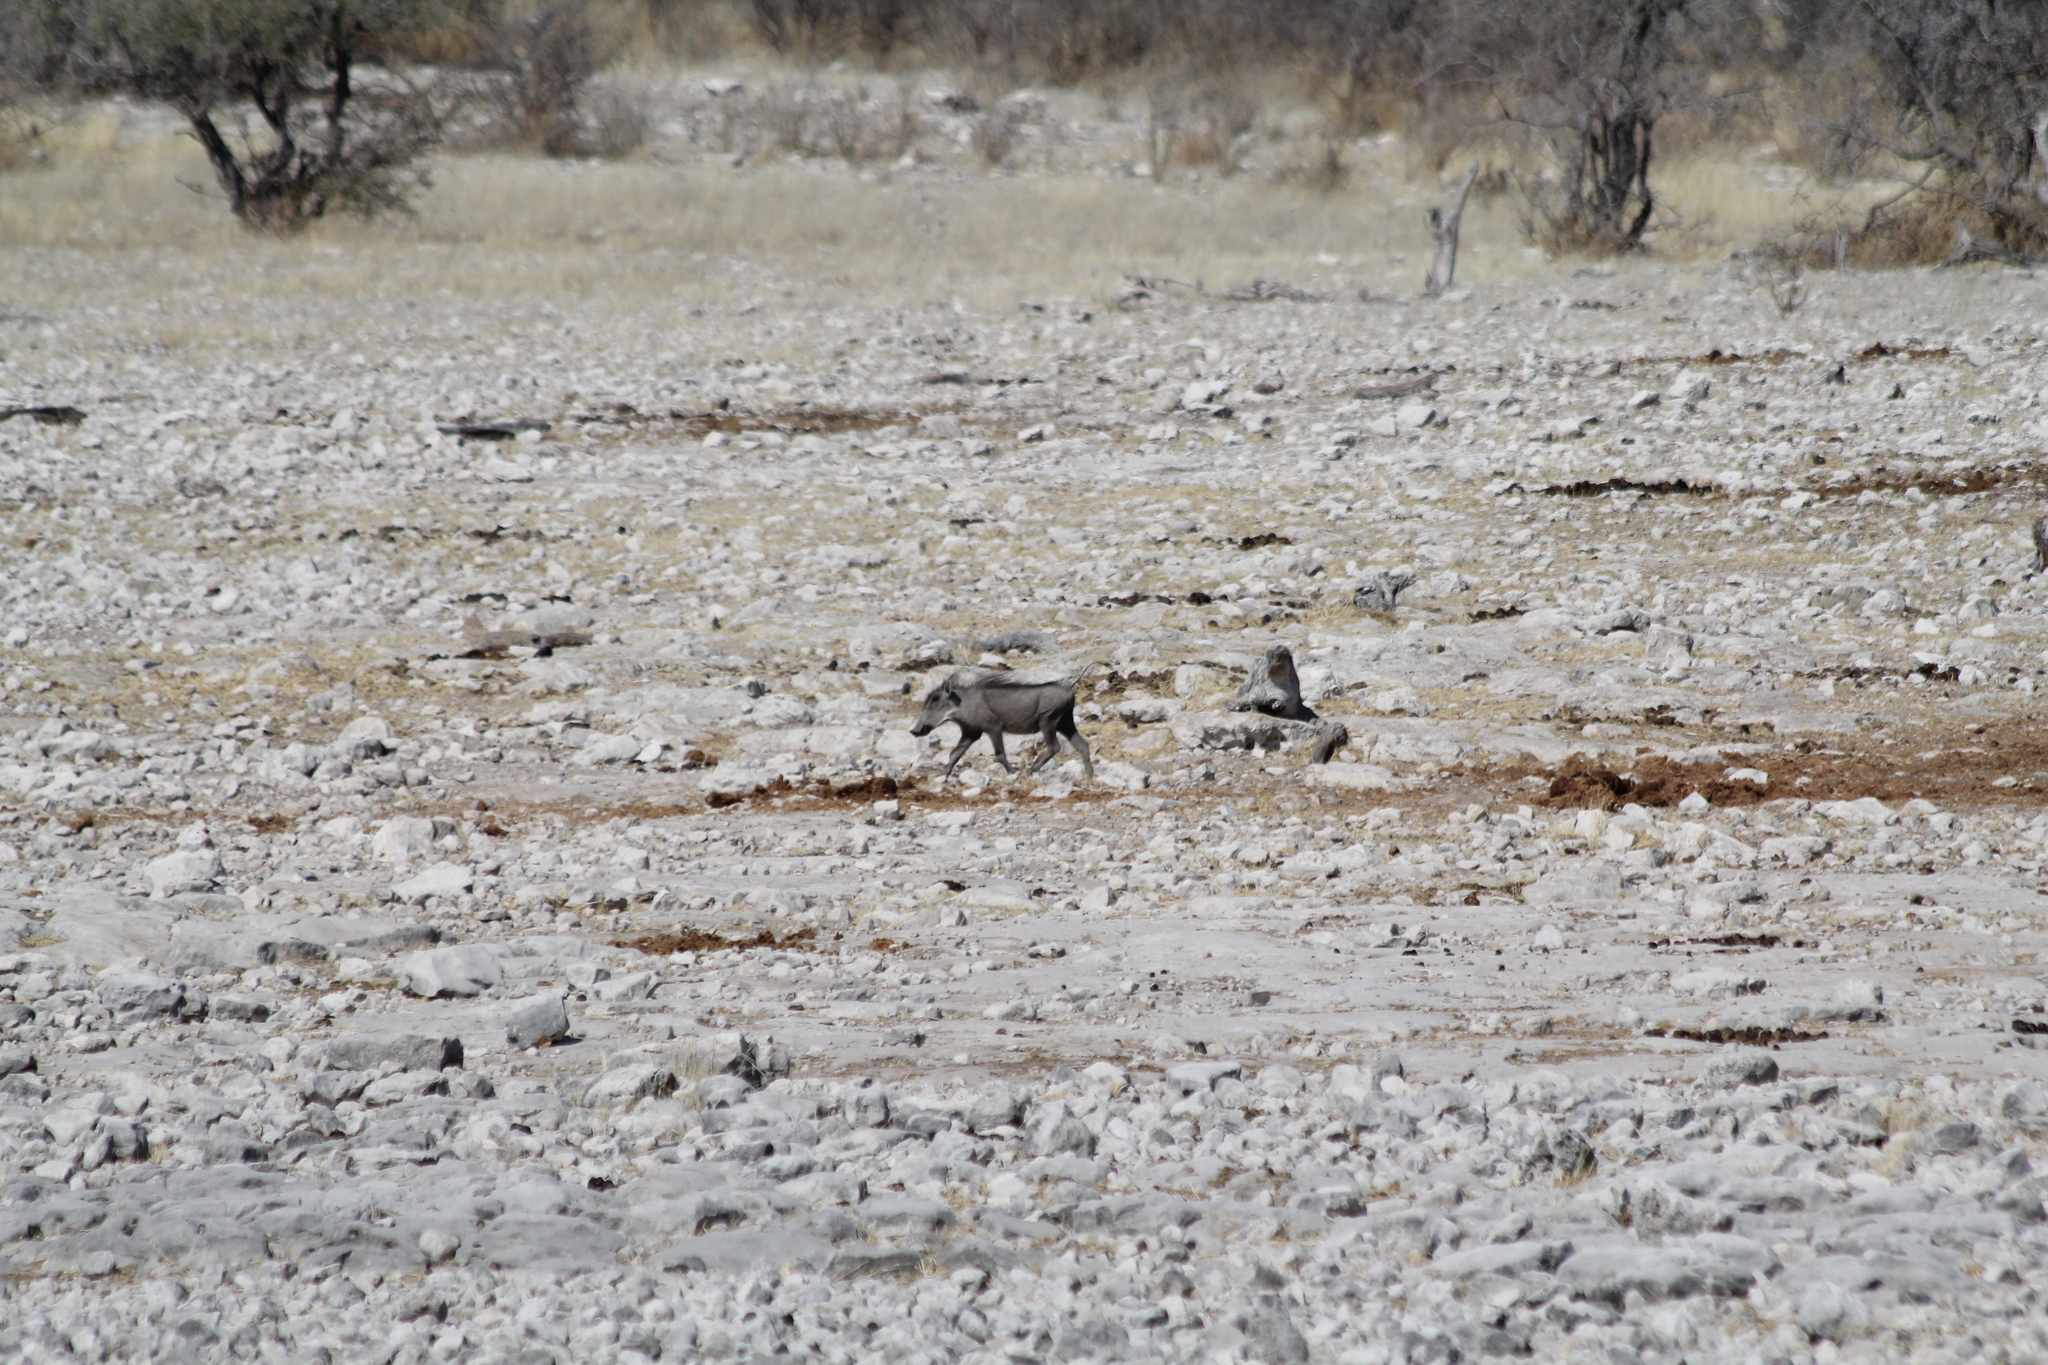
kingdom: Animalia
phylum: Chordata
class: Mammalia
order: Artiodactyla
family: Suidae
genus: Phacochoerus
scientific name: Phacochoerus africanus
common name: Common warthog
